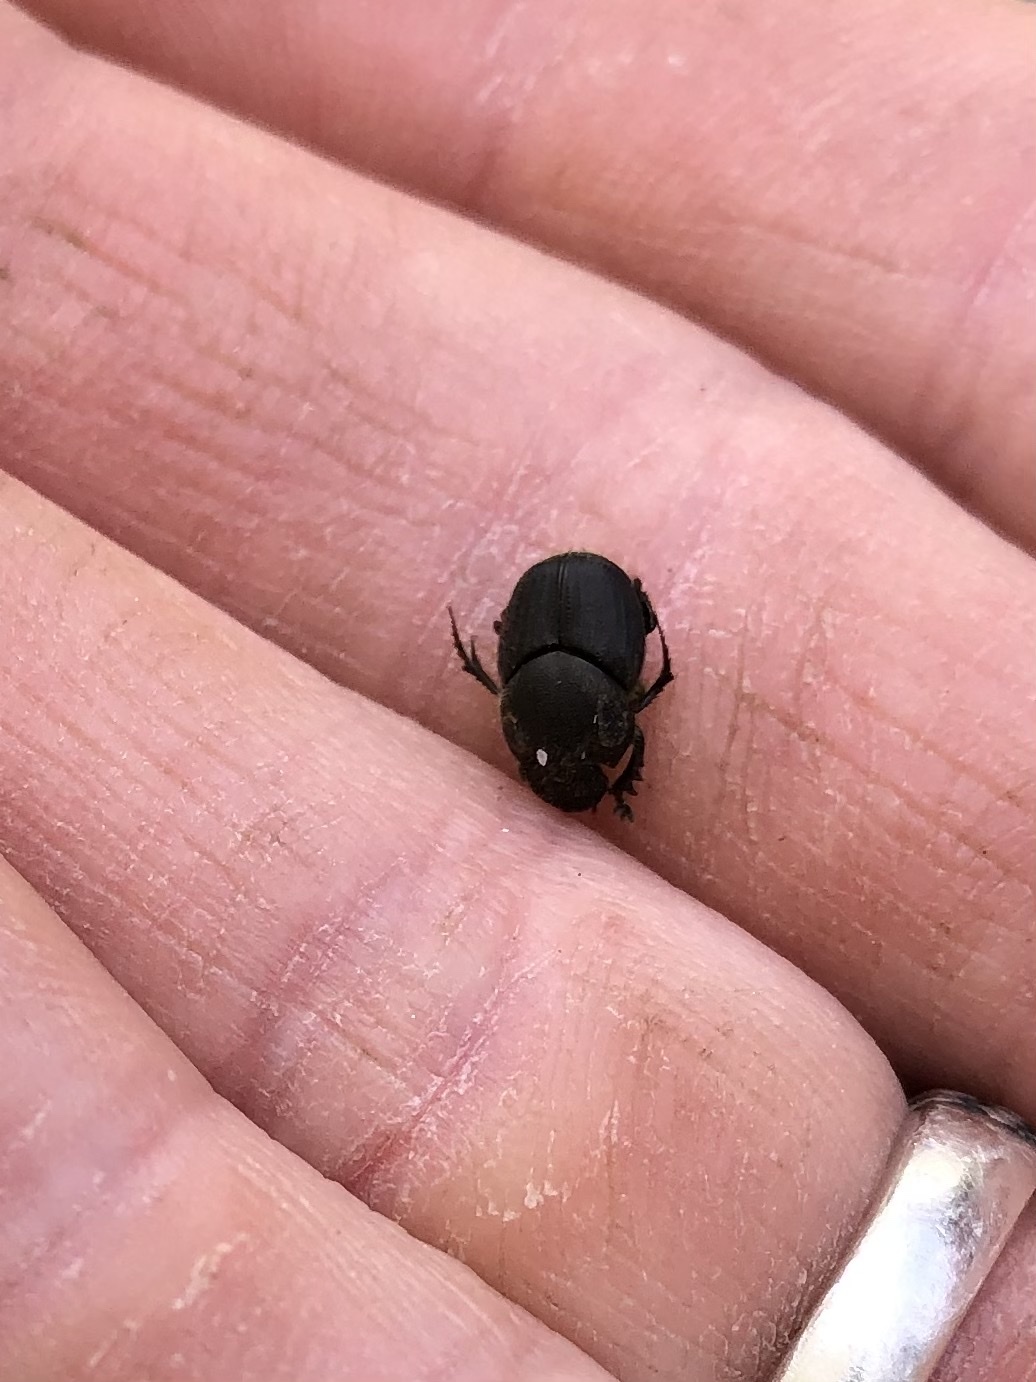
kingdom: Animalia
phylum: Arthropoda
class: Insecta
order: Coleoptera
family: Scarabaeidae
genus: Onthophagus
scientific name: Onthophagus hecate
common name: Scooped scarab
